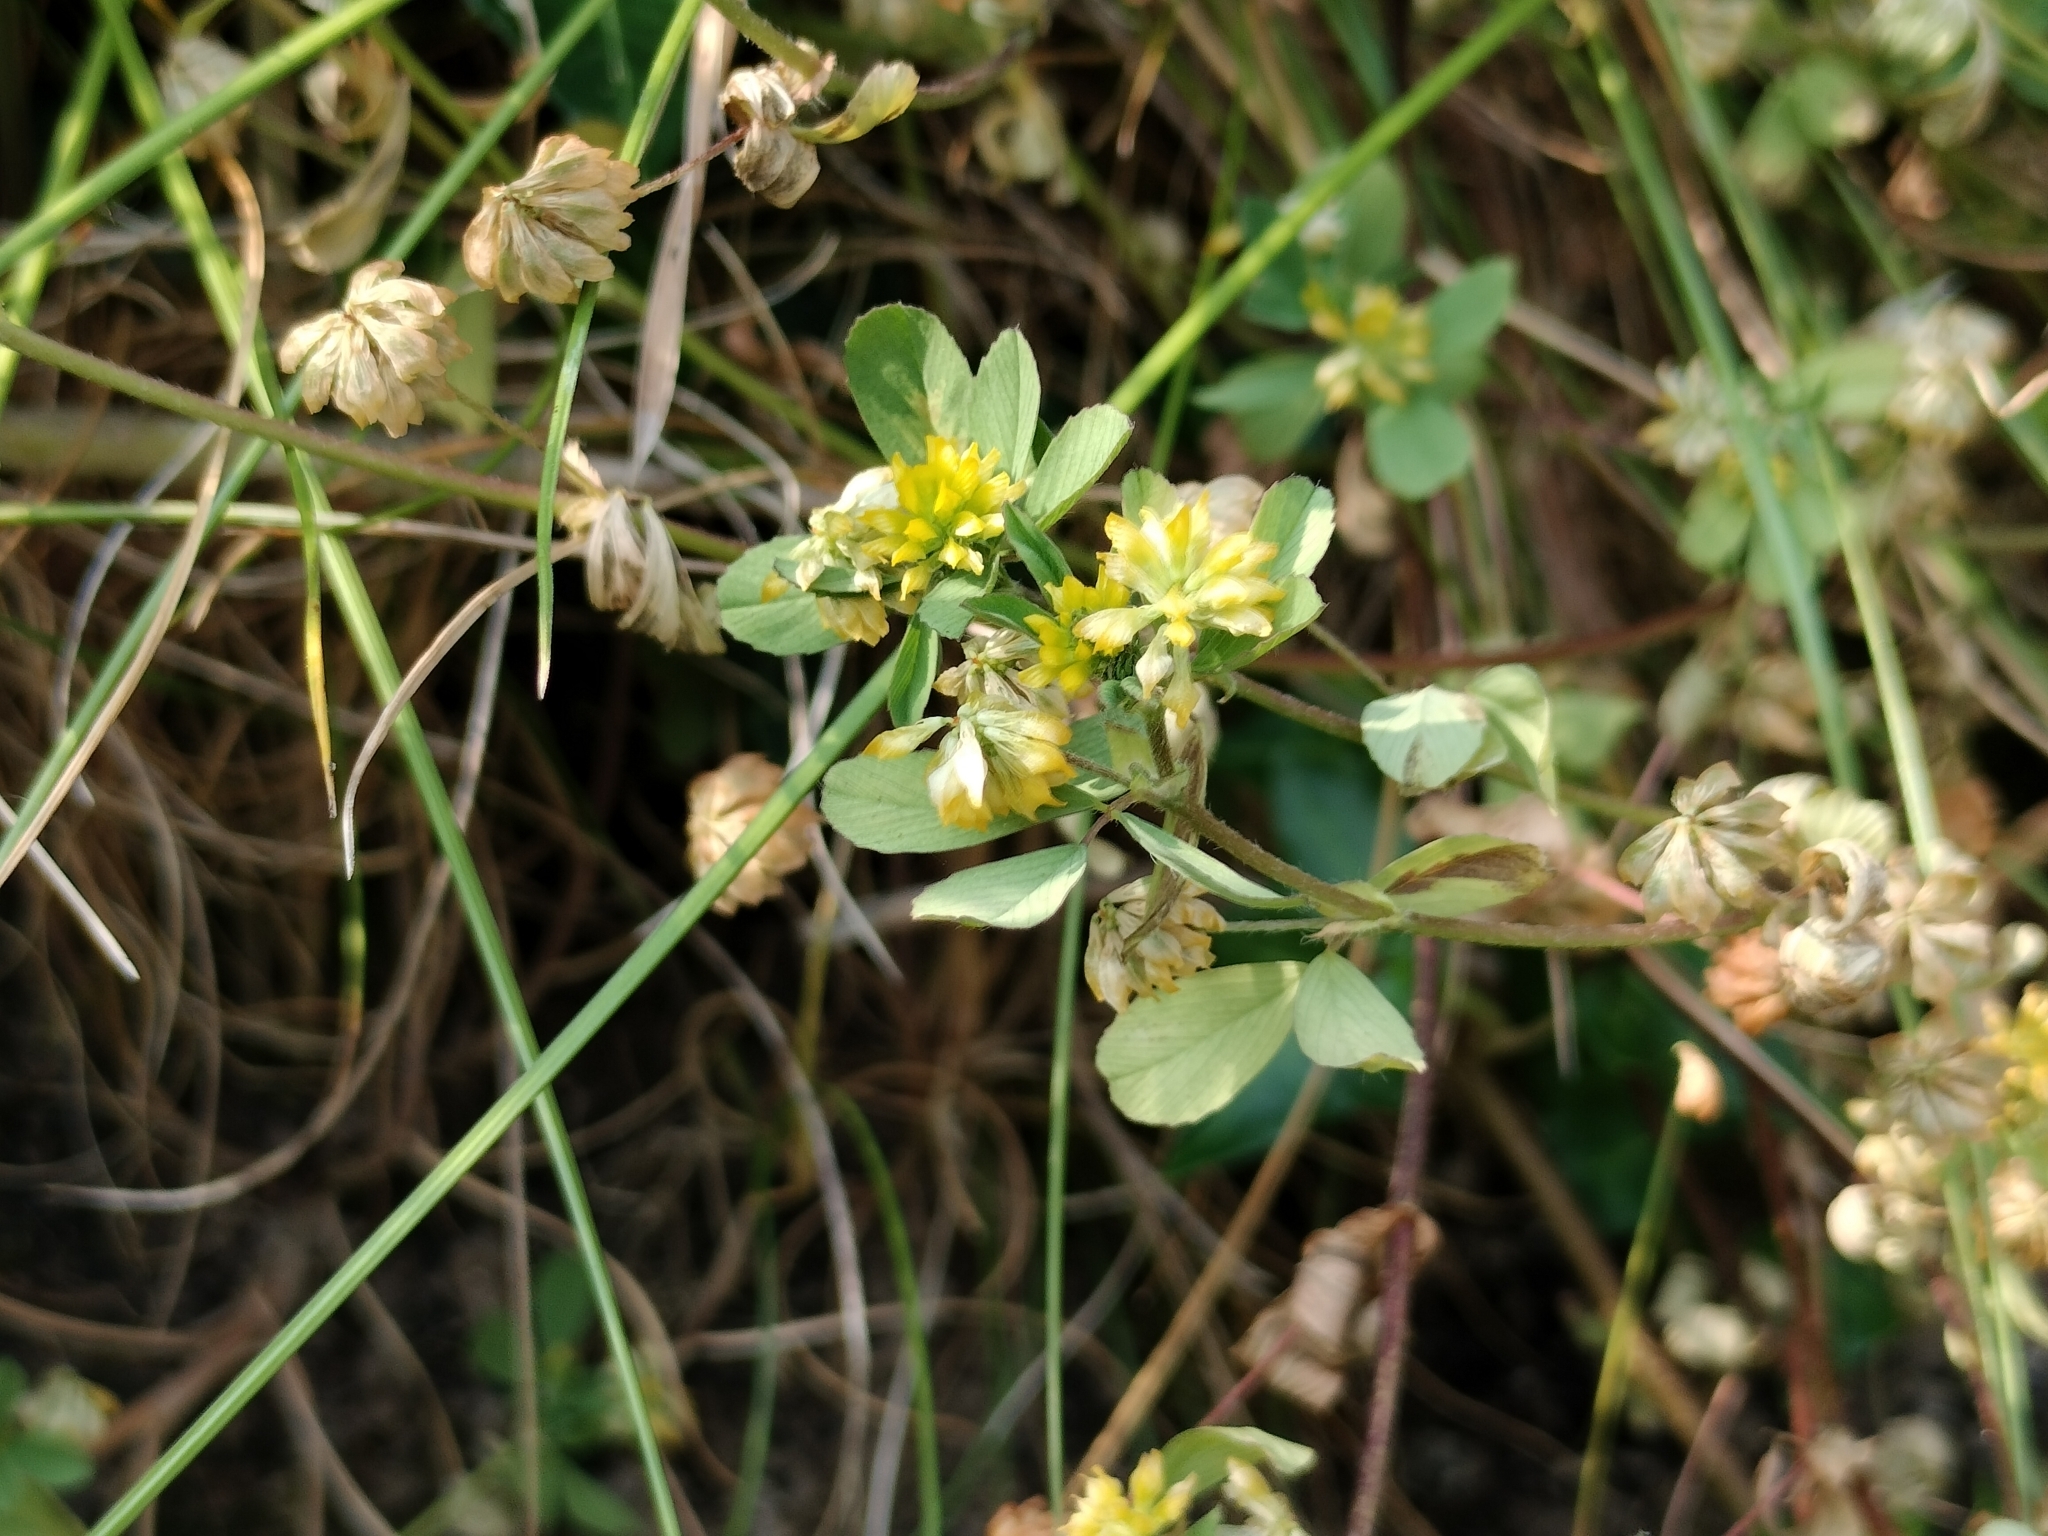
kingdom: Plantae
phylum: Tracheophyta
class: Magnoliopsida
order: Fabales
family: Fabaceae
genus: Trifolium
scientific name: Trifolium dubium
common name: Suckling clover
